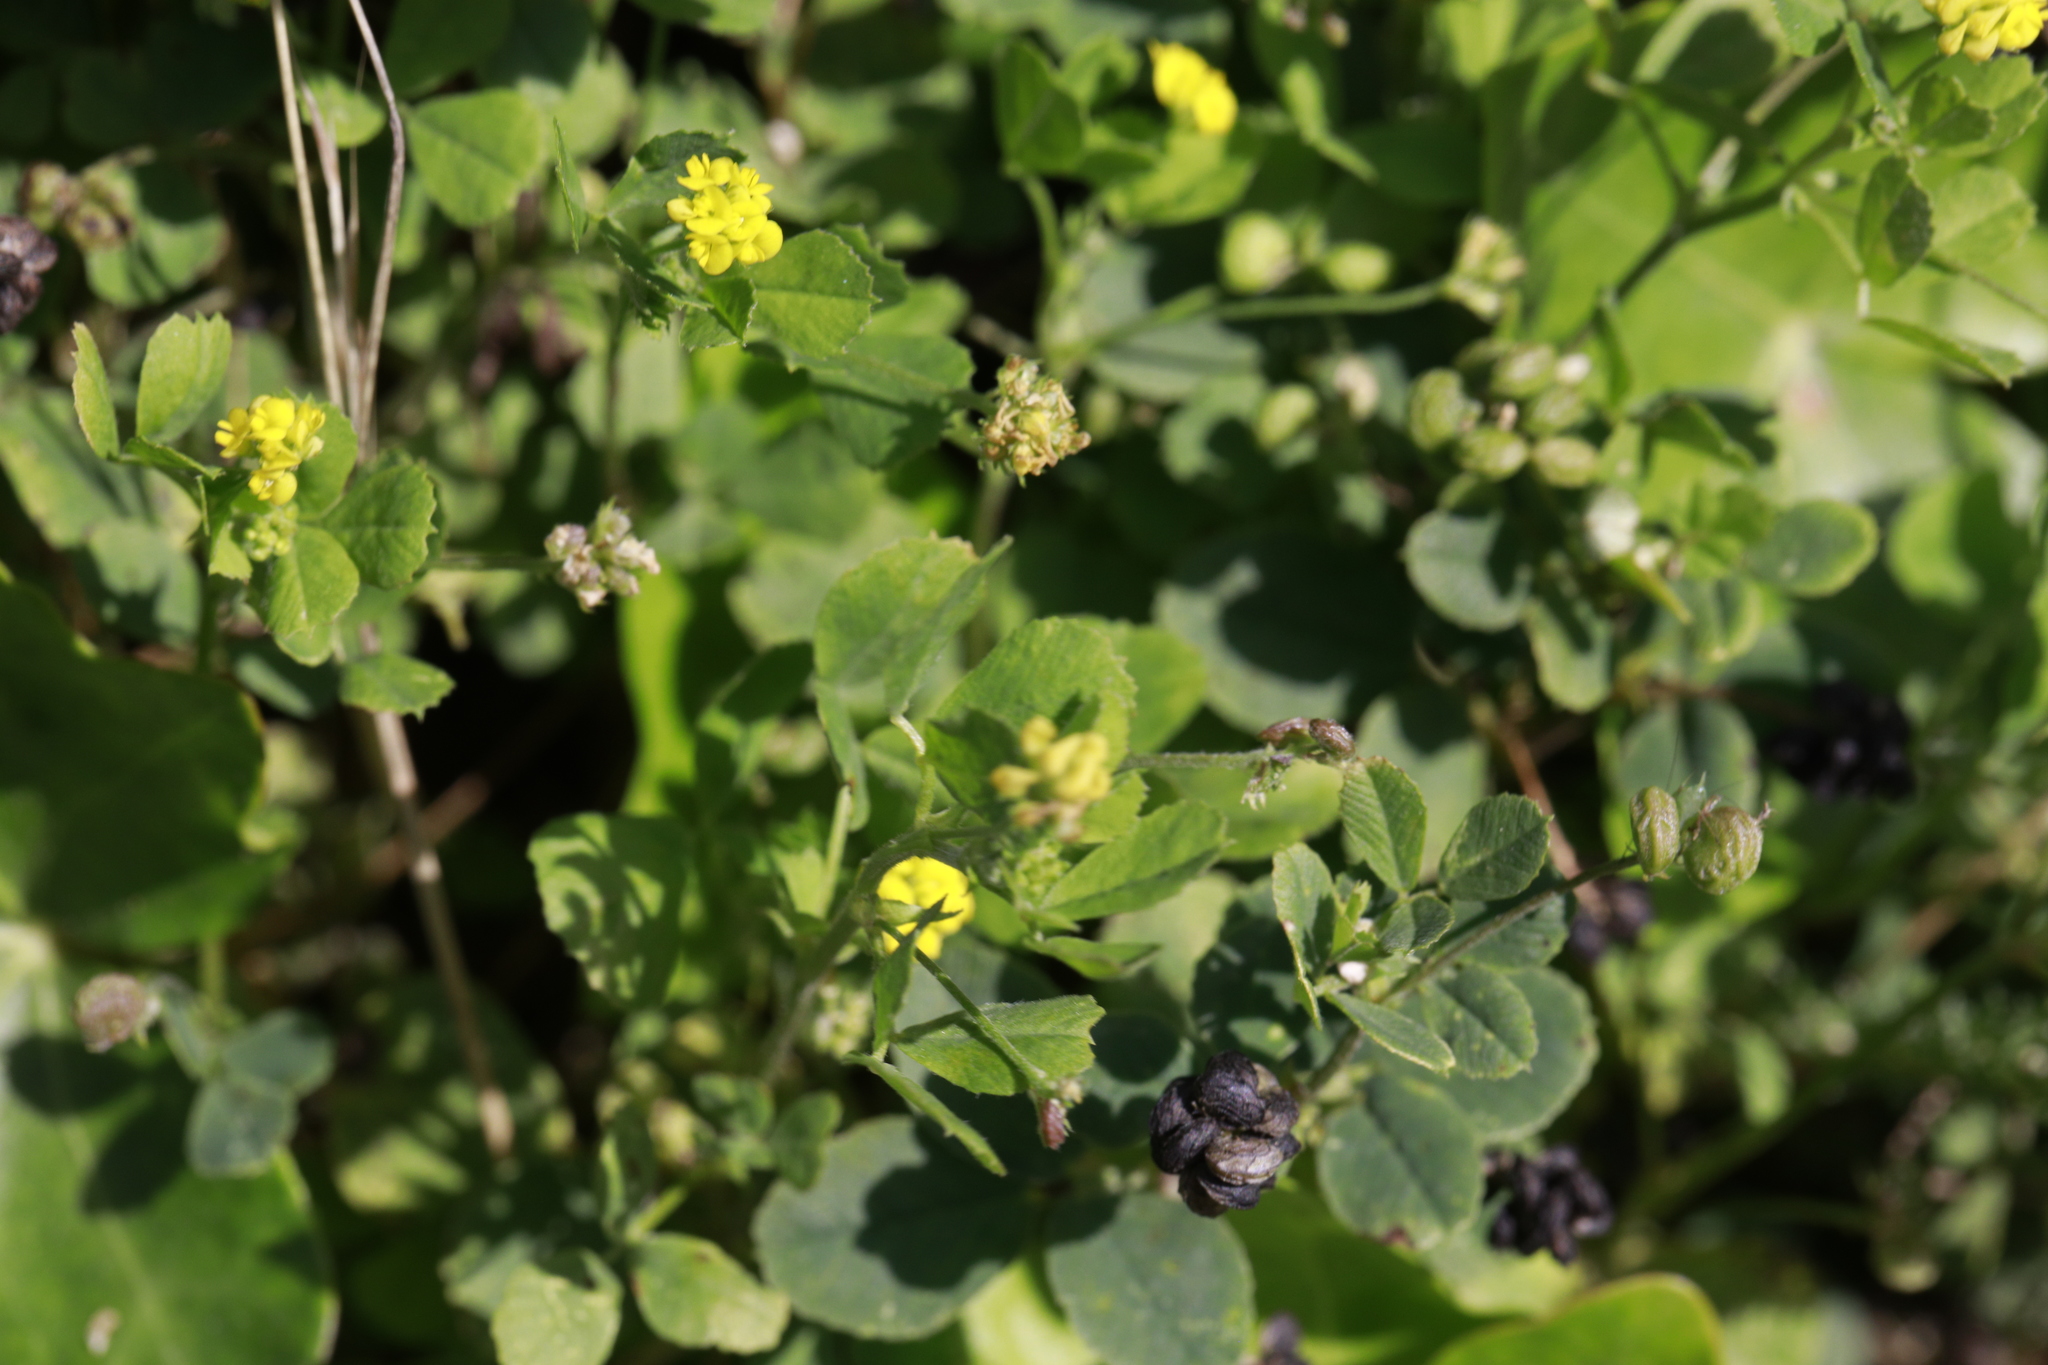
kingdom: Plantae
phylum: Tracheophyta
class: Magnoliopsida
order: Fabales
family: Fabaceae
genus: Medicago
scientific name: Medicago lupulina
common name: Black medick
